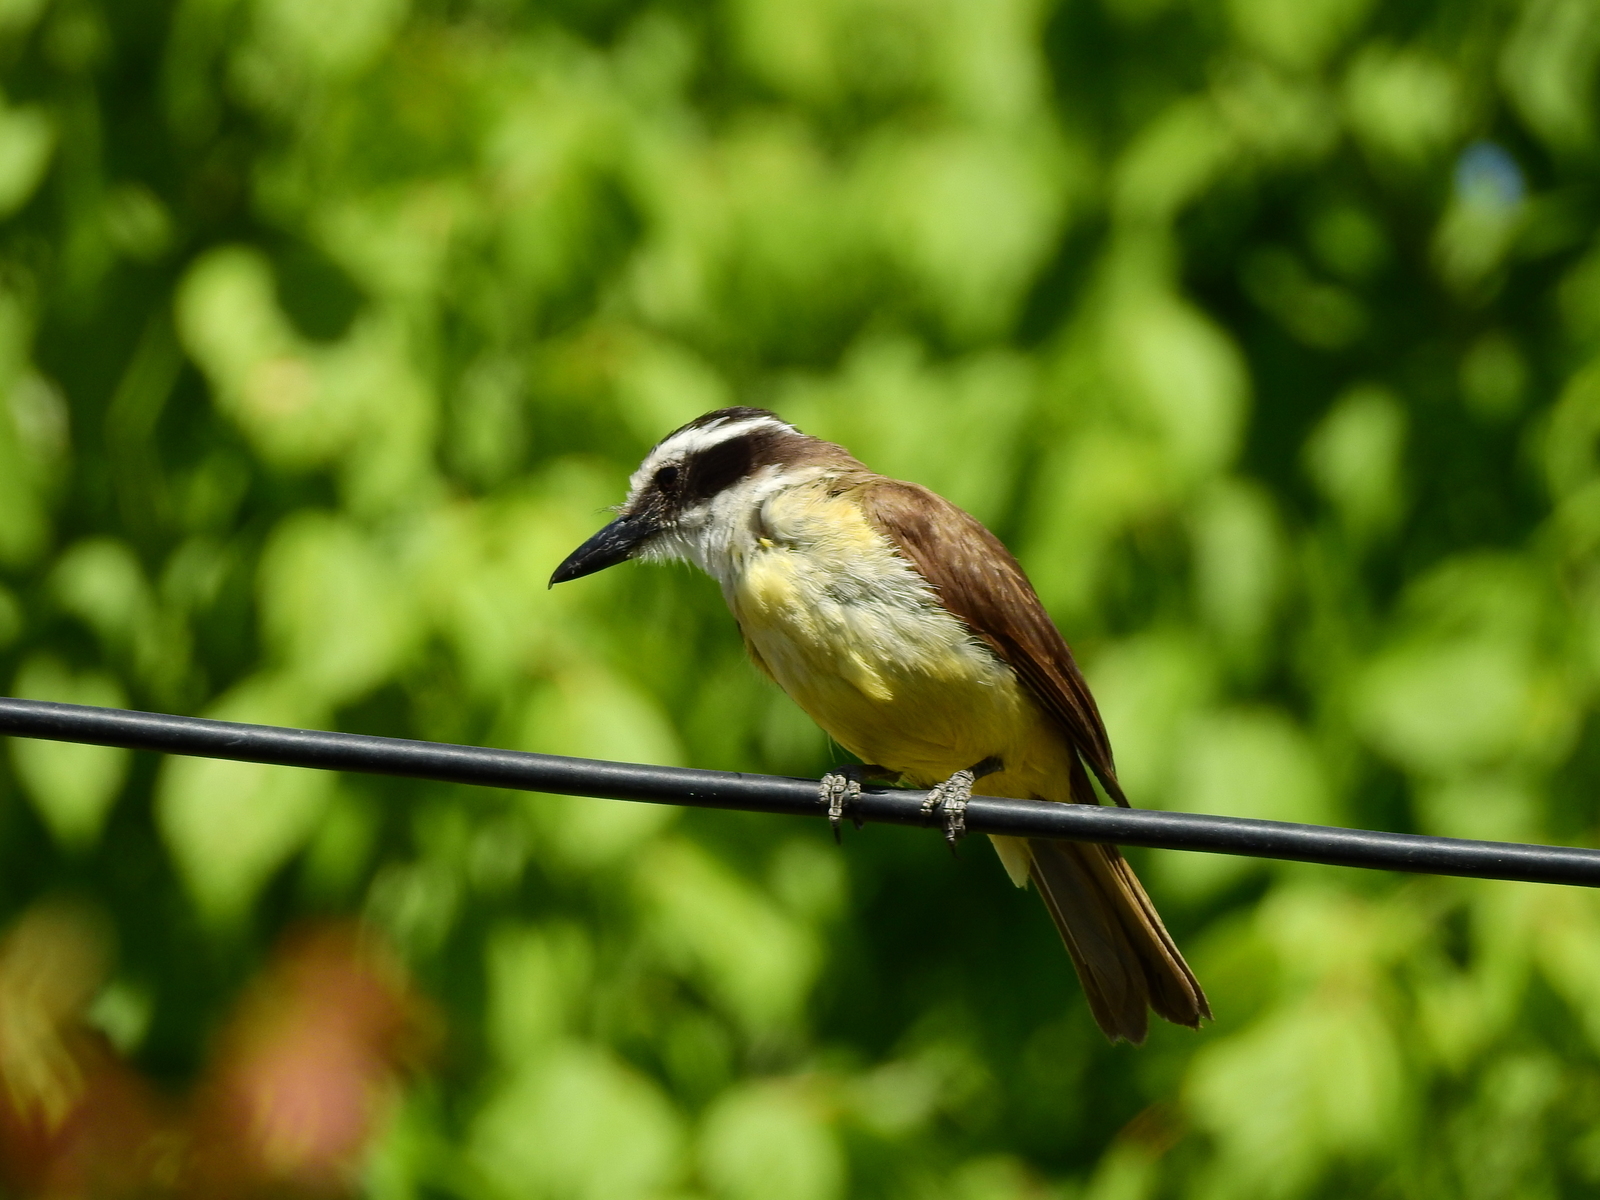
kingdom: Animalia
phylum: Chordata
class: Aves
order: Passeriformes
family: Tyrannidae
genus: Pitangus
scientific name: Pitangus sulphuratus
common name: Great kiskadee
